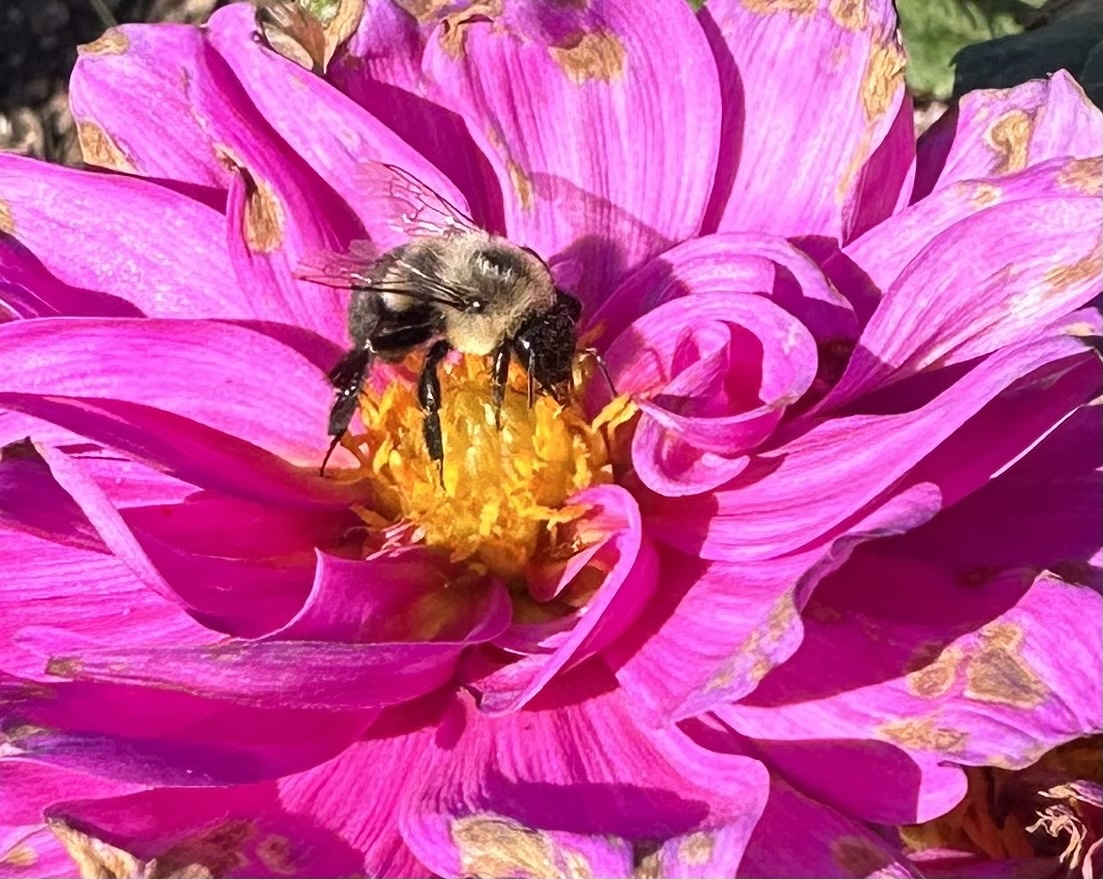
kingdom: Animalia
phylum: Arthropoda
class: Insecta
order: Hymenoptera
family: Apidae
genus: Bombus
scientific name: Bombus impatiens
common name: Common eastern bumble bee
